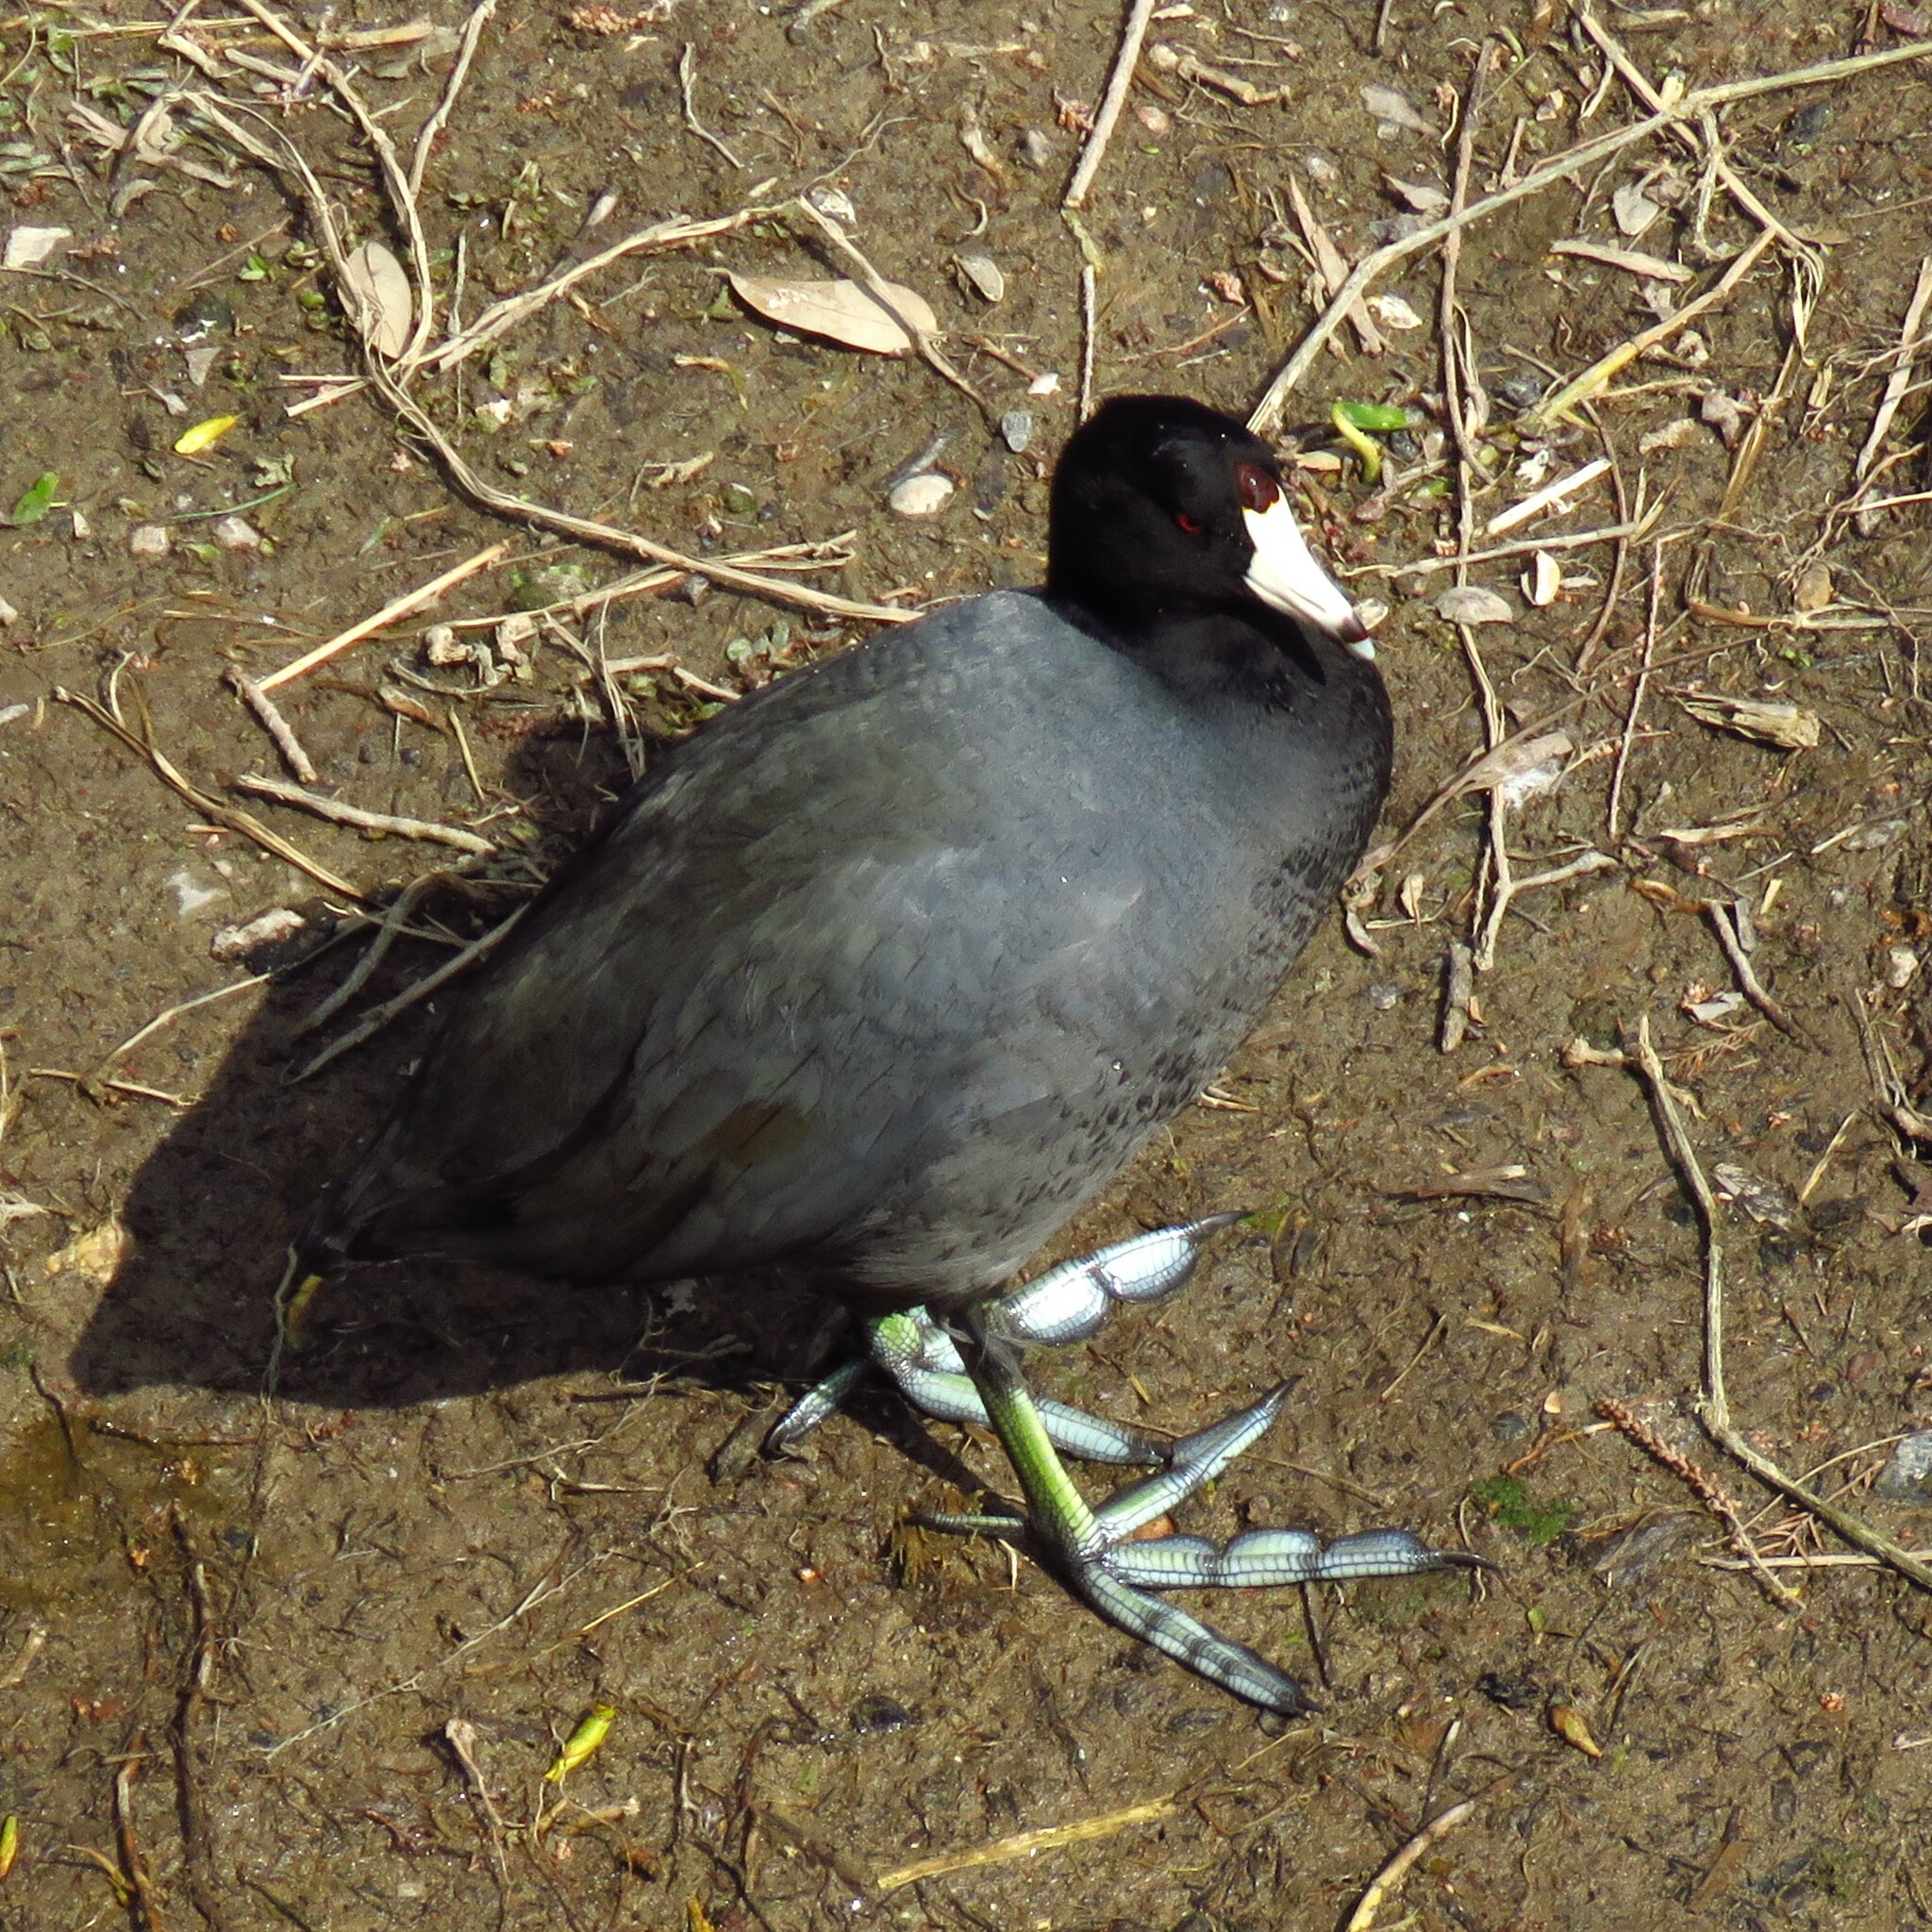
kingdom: Animalia
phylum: Chordata
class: Aves
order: Gruiformes
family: Rallidae
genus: Fulica
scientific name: Fulica americana
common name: American coot
